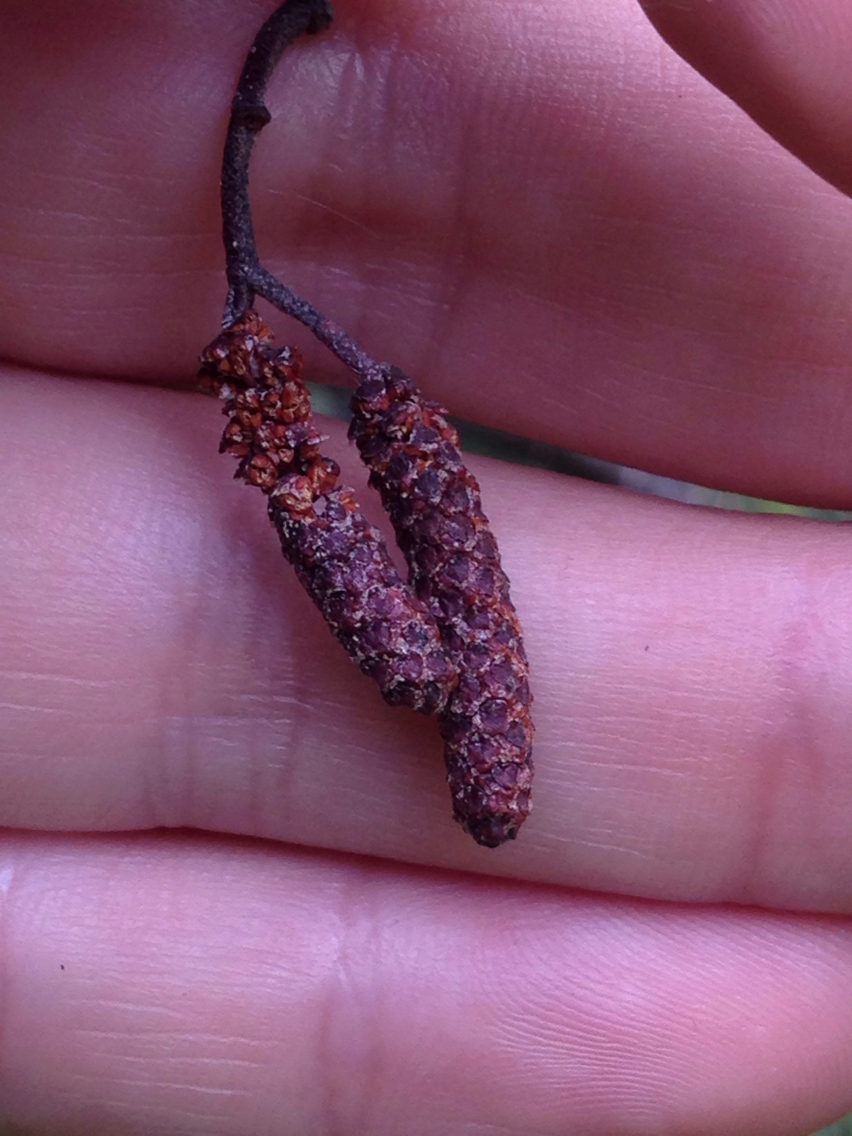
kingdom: Plantae
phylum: Tracheophyta
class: Magnoliopsida
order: Fagales
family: Betulaceae
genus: Alnus
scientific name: Alnus incana
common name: Grey alder
